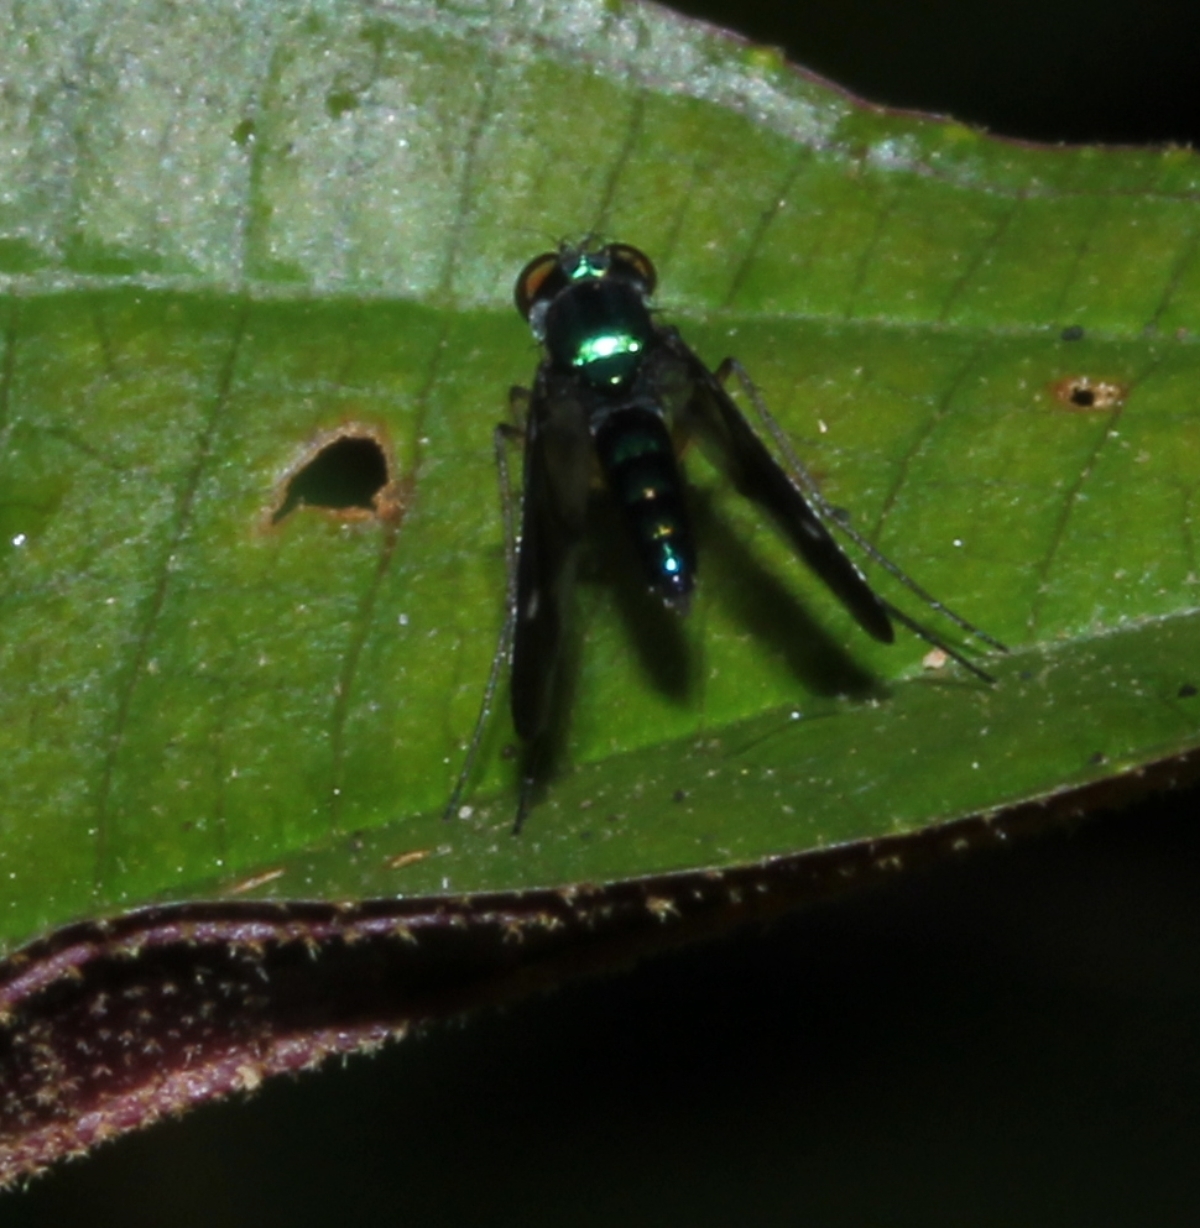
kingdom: Animalia
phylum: Arthropoda
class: Insecta
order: Diptera
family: Dolichopodidae
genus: Condylostylus
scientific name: Condylostylus
